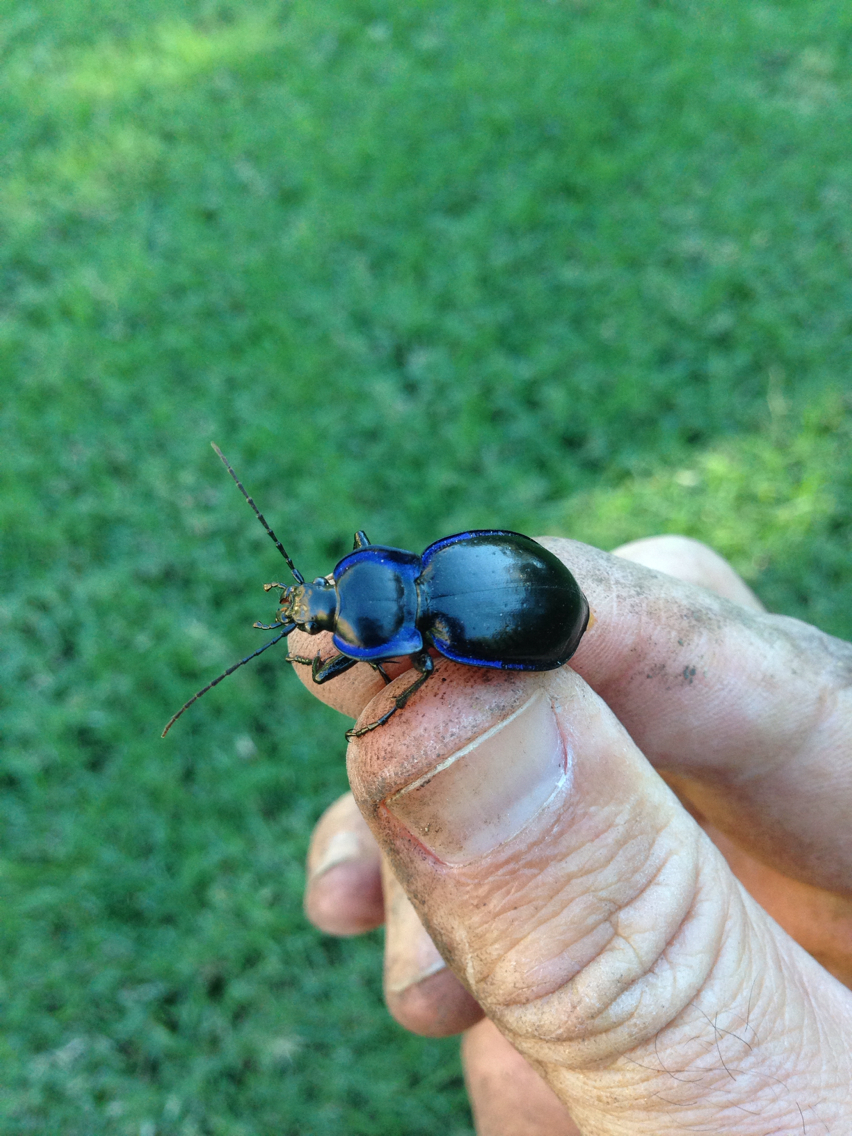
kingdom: Animalia
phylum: Arthropoda
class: Insecta
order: Coleoptera
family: Carabidae
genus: Carabus
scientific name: Carabus finitimus
